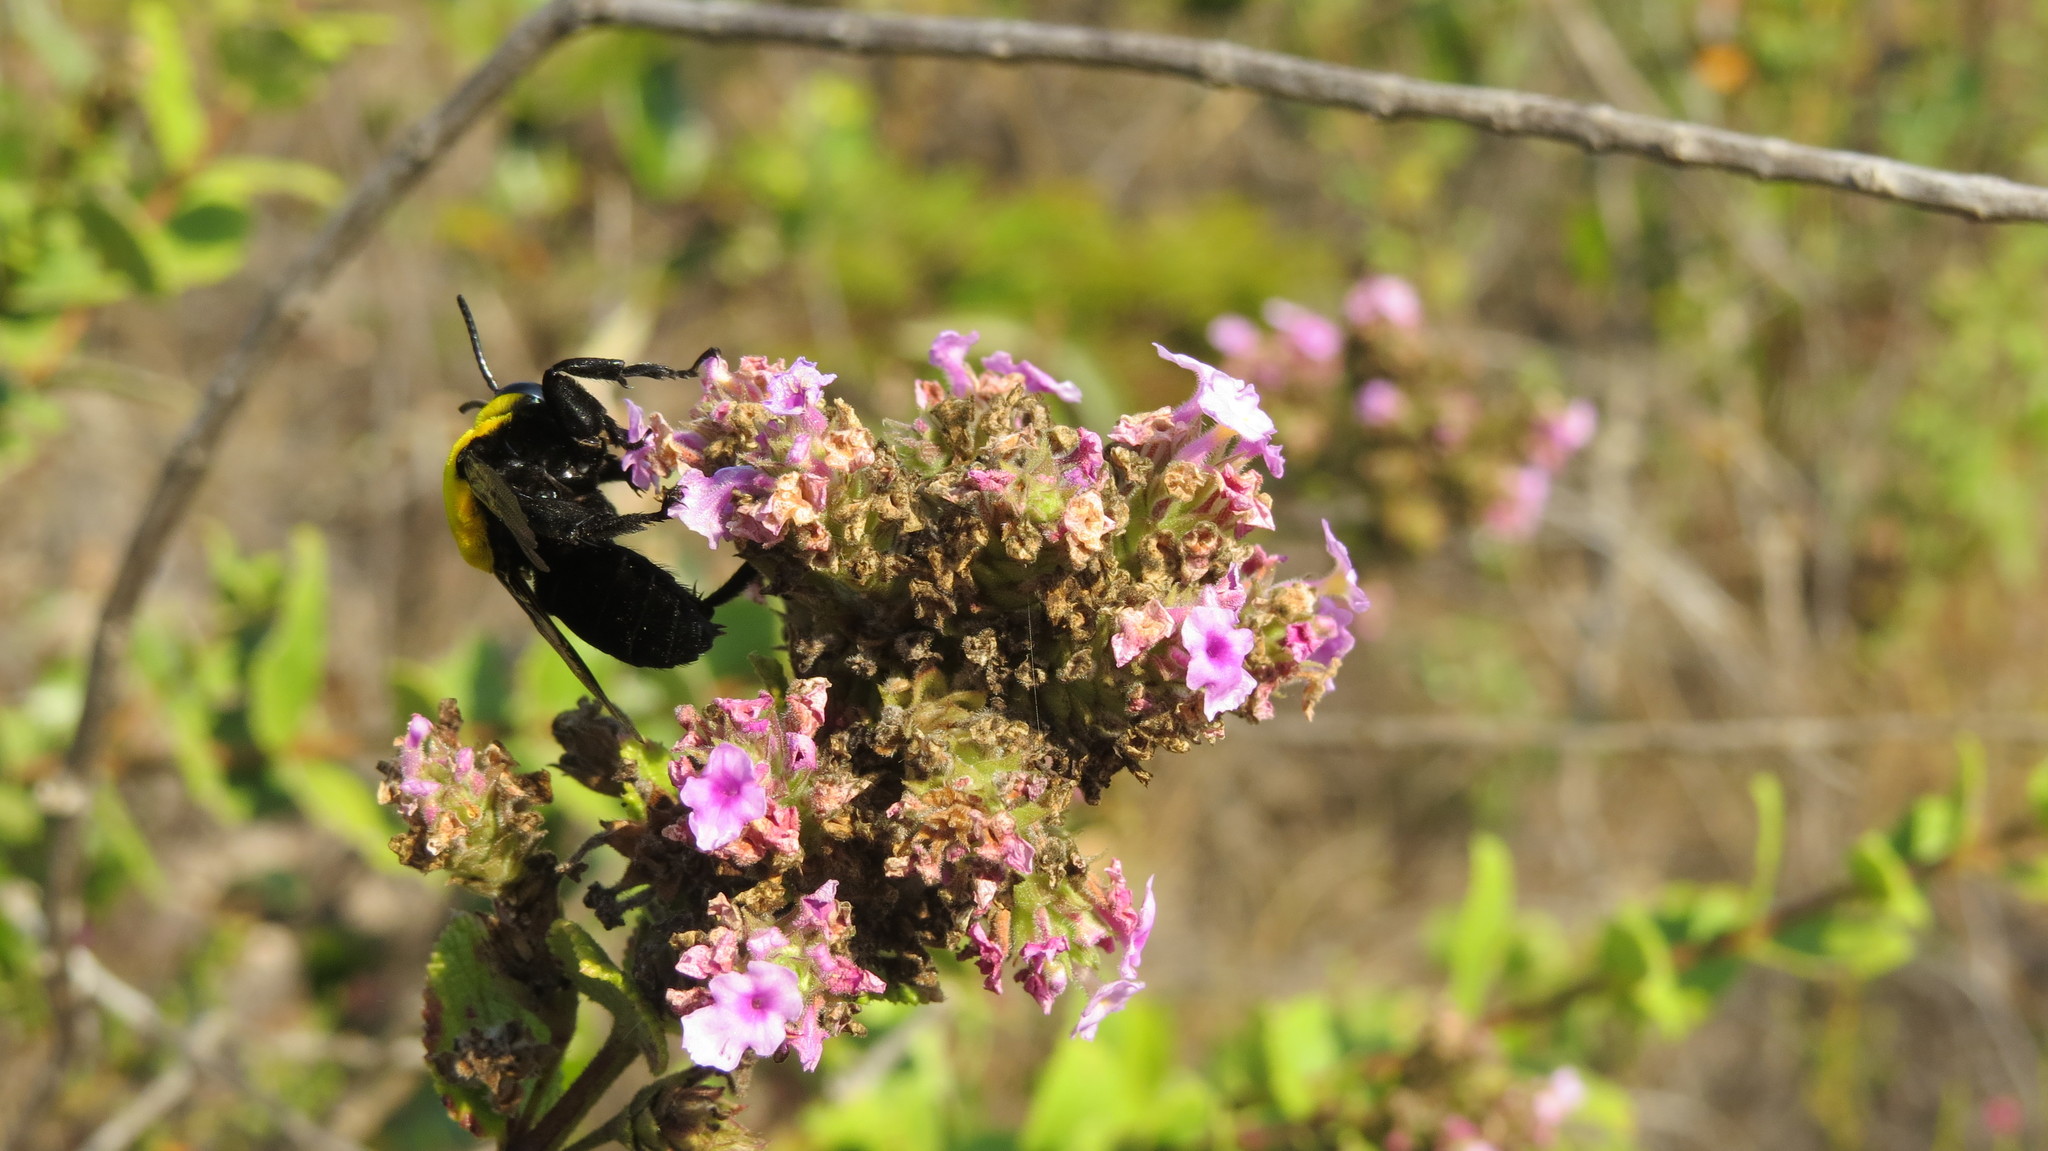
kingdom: Animalia
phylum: Arthropoda
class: Insecta
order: Hymenoptera
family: Apidae
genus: Hopliphora
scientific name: Hopliphora superba
